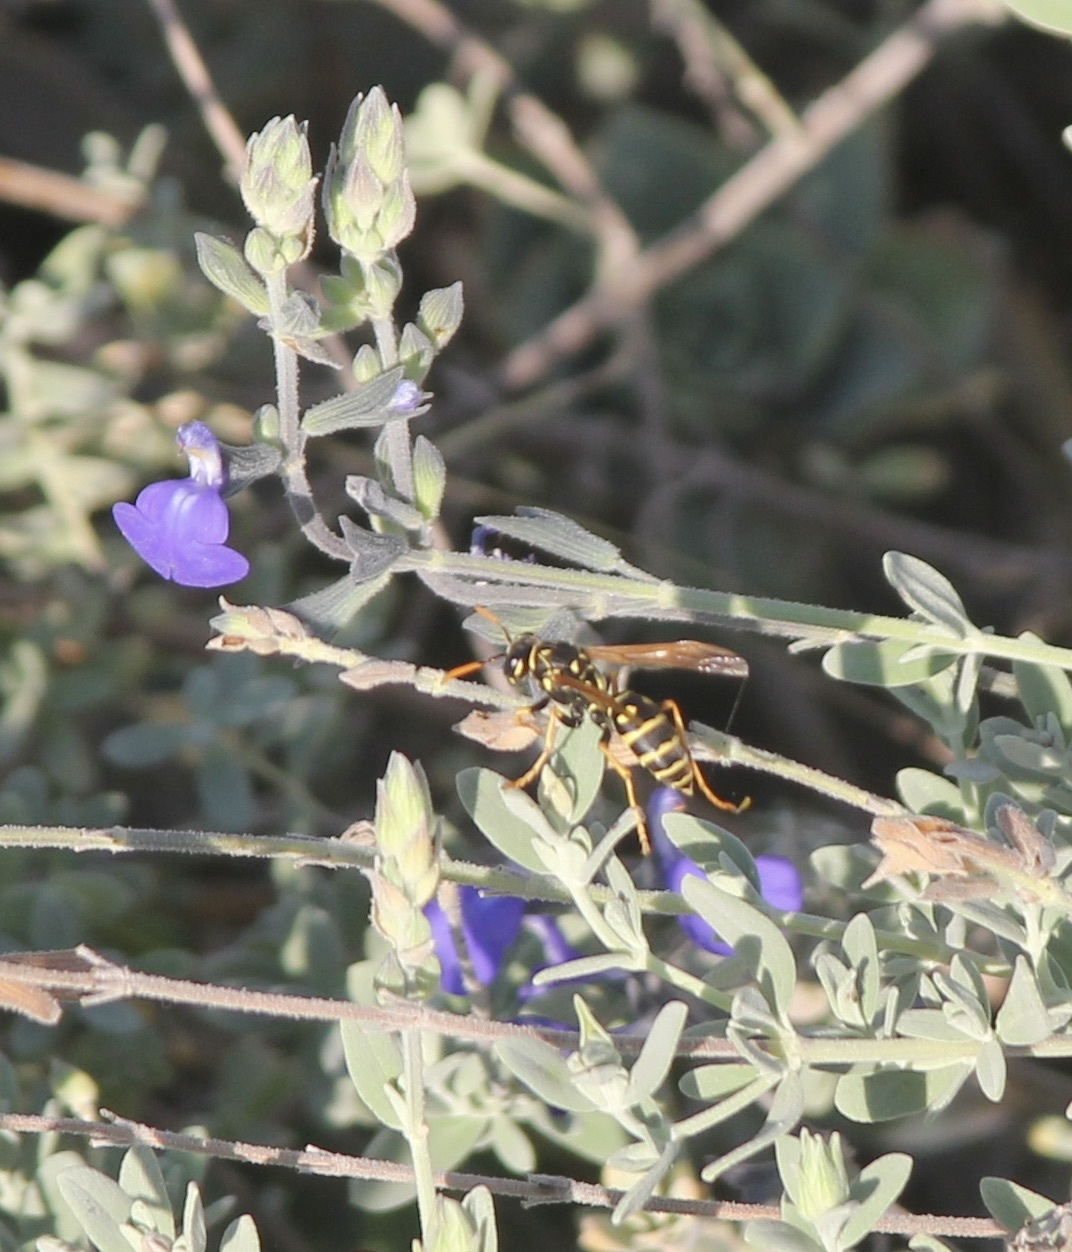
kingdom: Animalia
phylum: Arthropoda
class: Insecta
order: Hymenoptera
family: Eumenidae
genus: Polistes
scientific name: Polistes dominula
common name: Paper wasp
